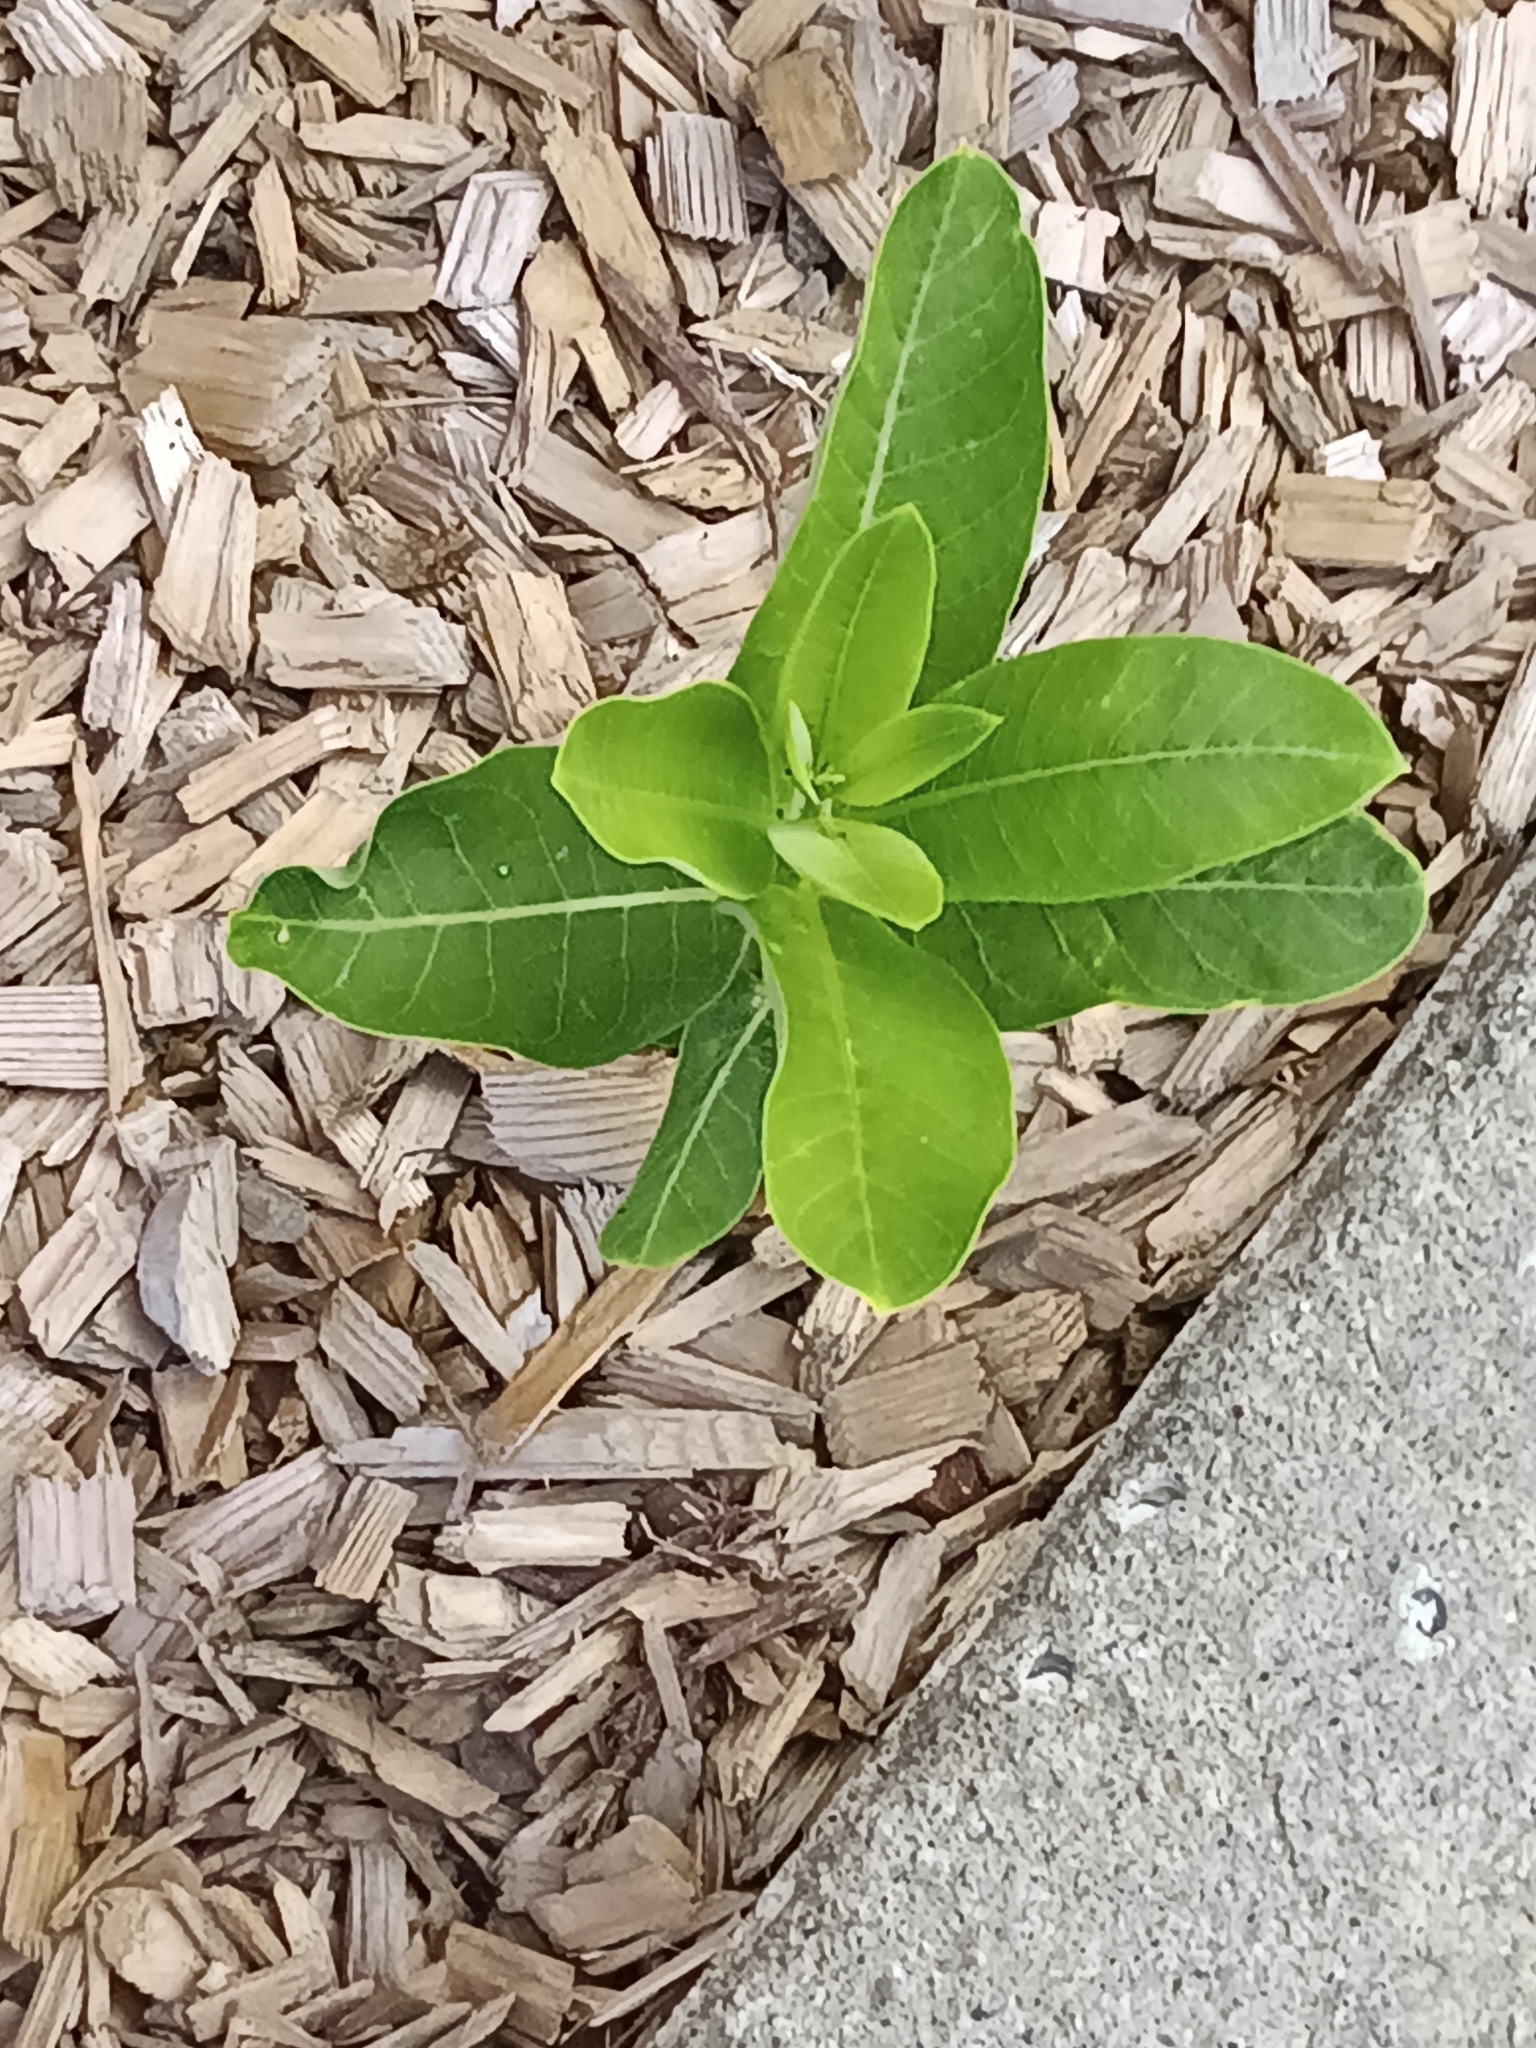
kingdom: Plantae
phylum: Tracheophyta
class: Magnoliopsida
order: Gentianales
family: Apocynaceae
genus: Asclepias
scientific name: Asclepias syriaca
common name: Common milkweed
